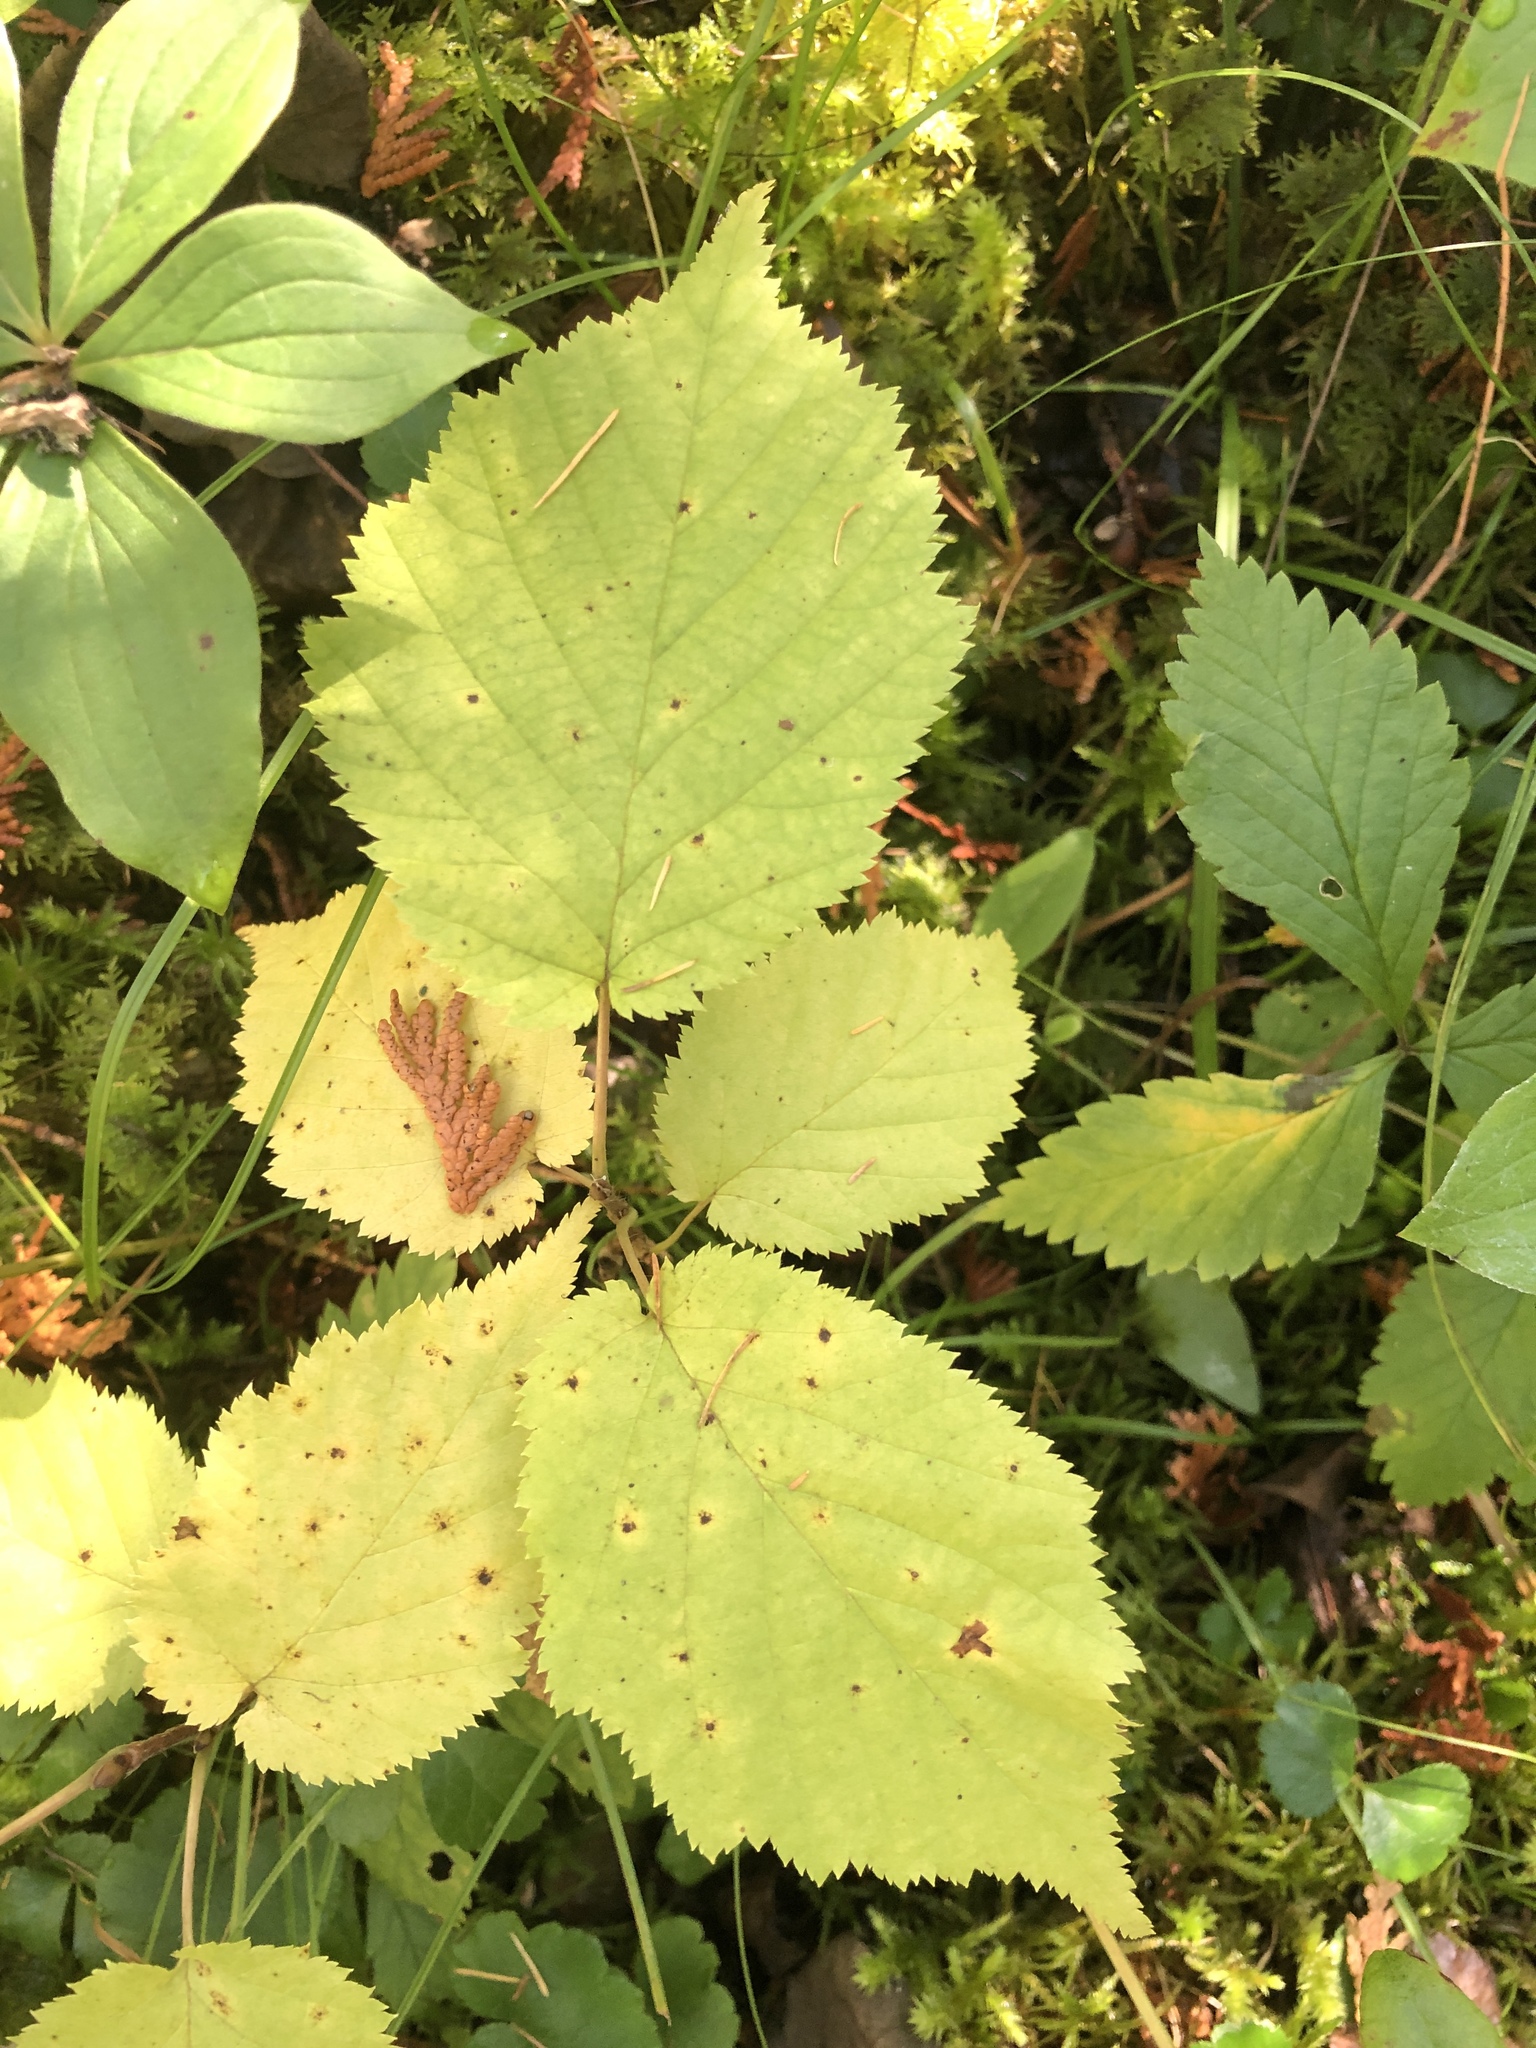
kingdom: Plantae
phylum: Tracheophyta
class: Magnoliopsida
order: Fagales
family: Betulaceae
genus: Corylus
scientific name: Corylus cornuta
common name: Beaked hazel
